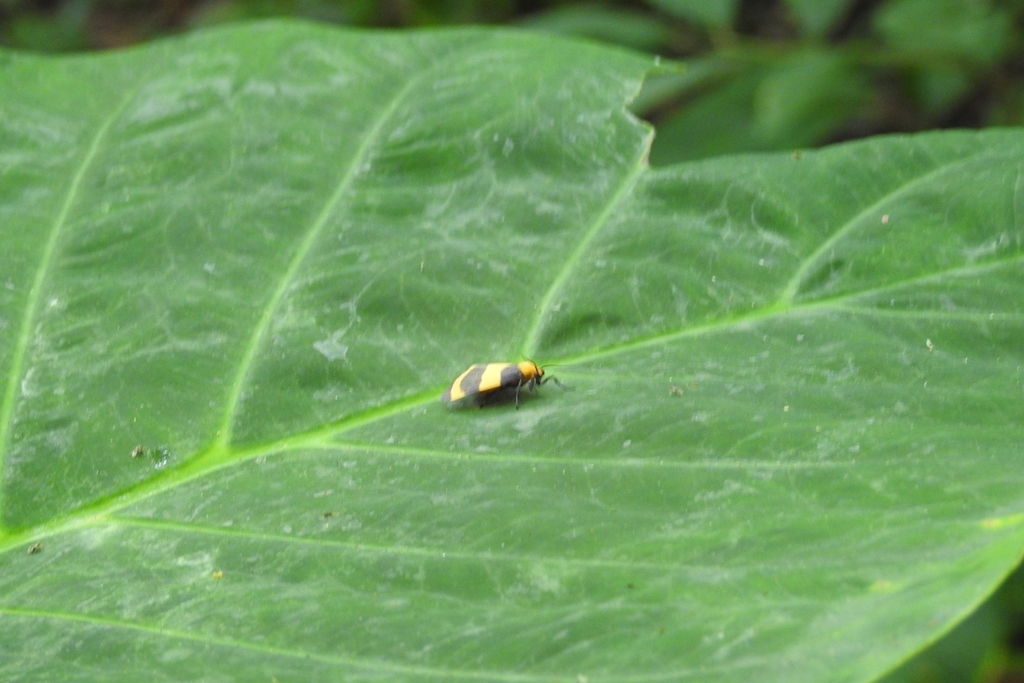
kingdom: Animalia
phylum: Arthropoda
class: Insecta
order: Lepidoptera
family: Erebidae
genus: Eudesmia
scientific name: Eudesmia menea
